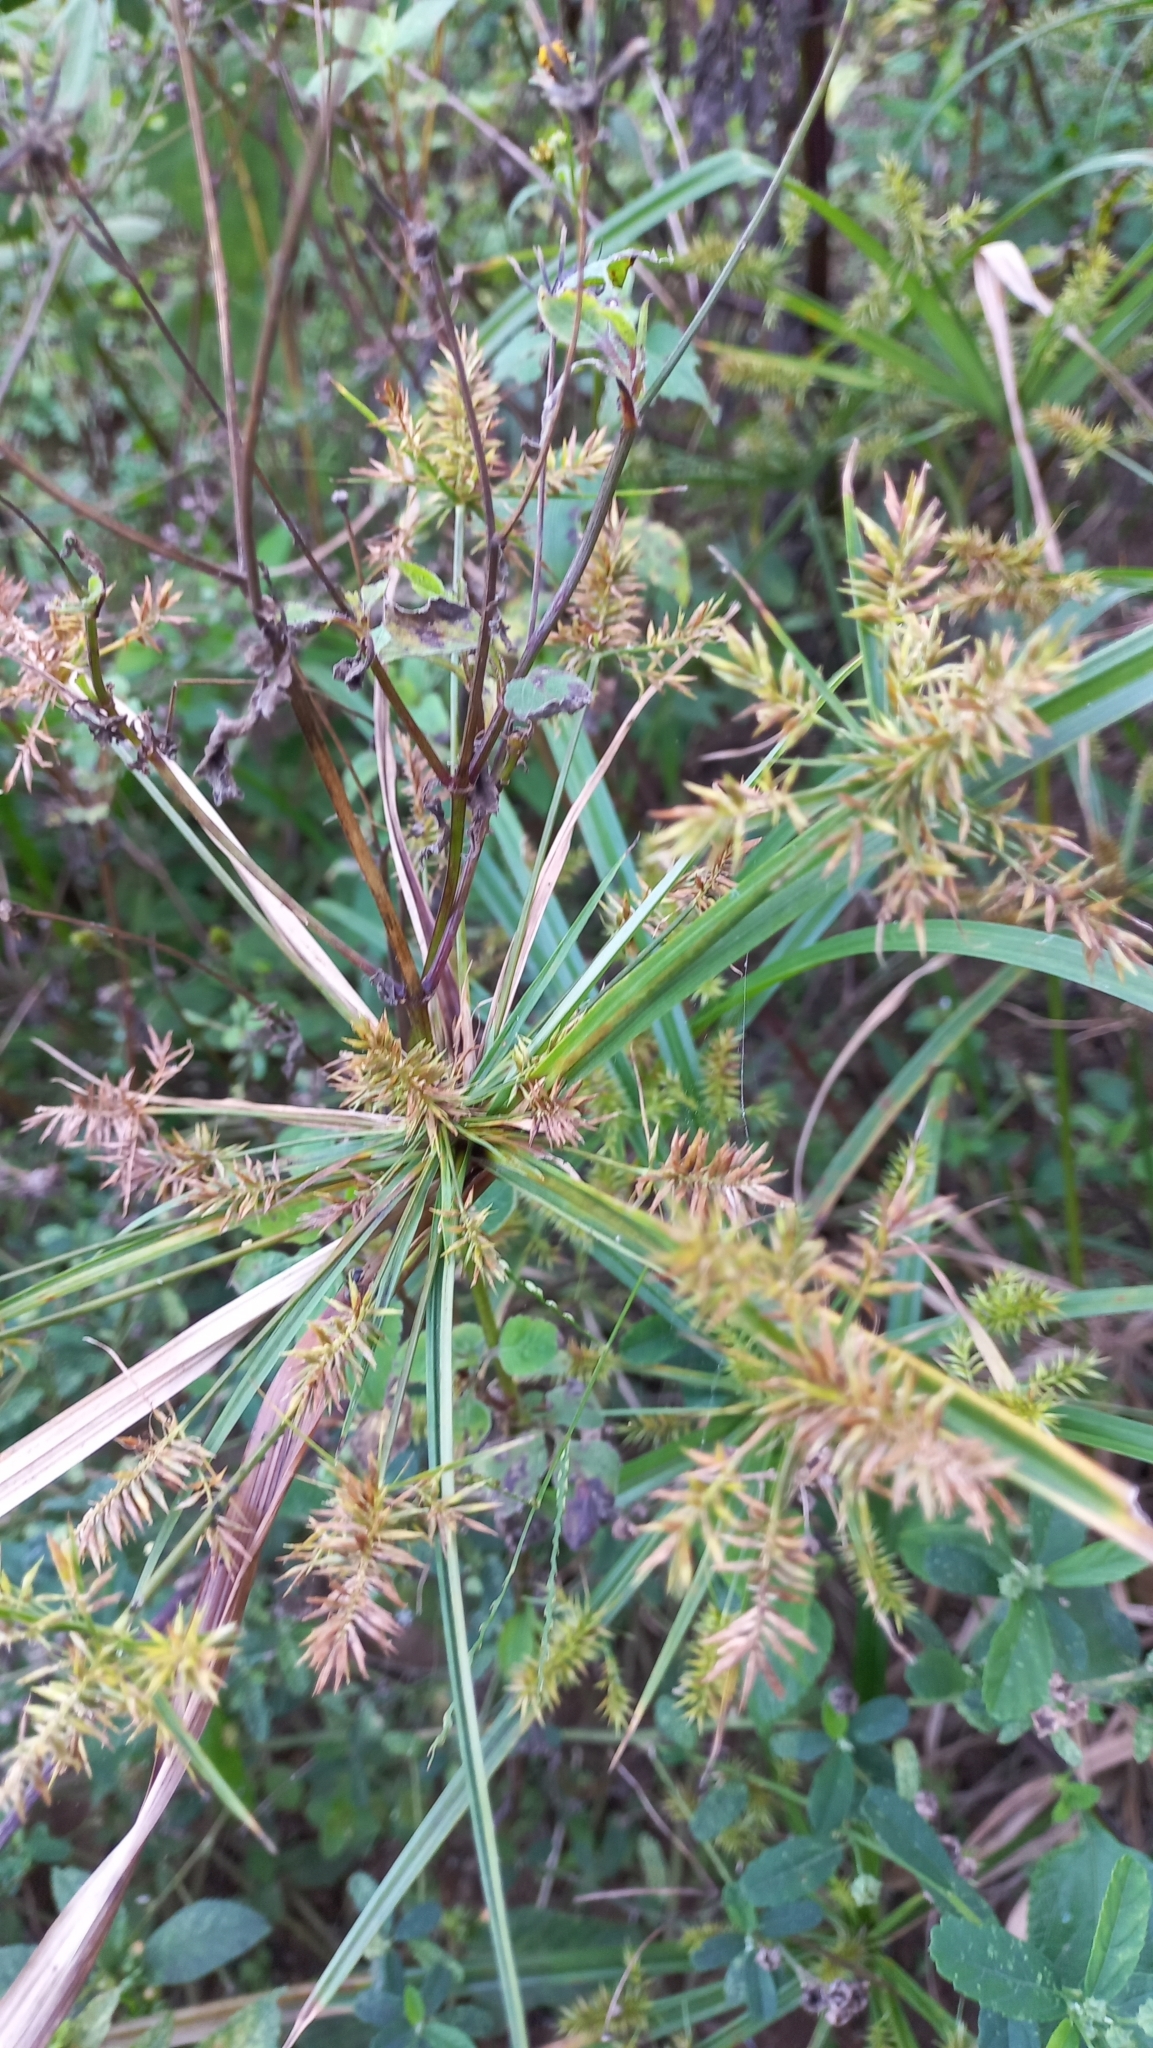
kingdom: Plantae
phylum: Tracheophyta
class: Liliopsida
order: Poales
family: Cyperaceae
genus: Cyperus
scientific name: Cyperus odoratus
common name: Fragrant flatsedge
